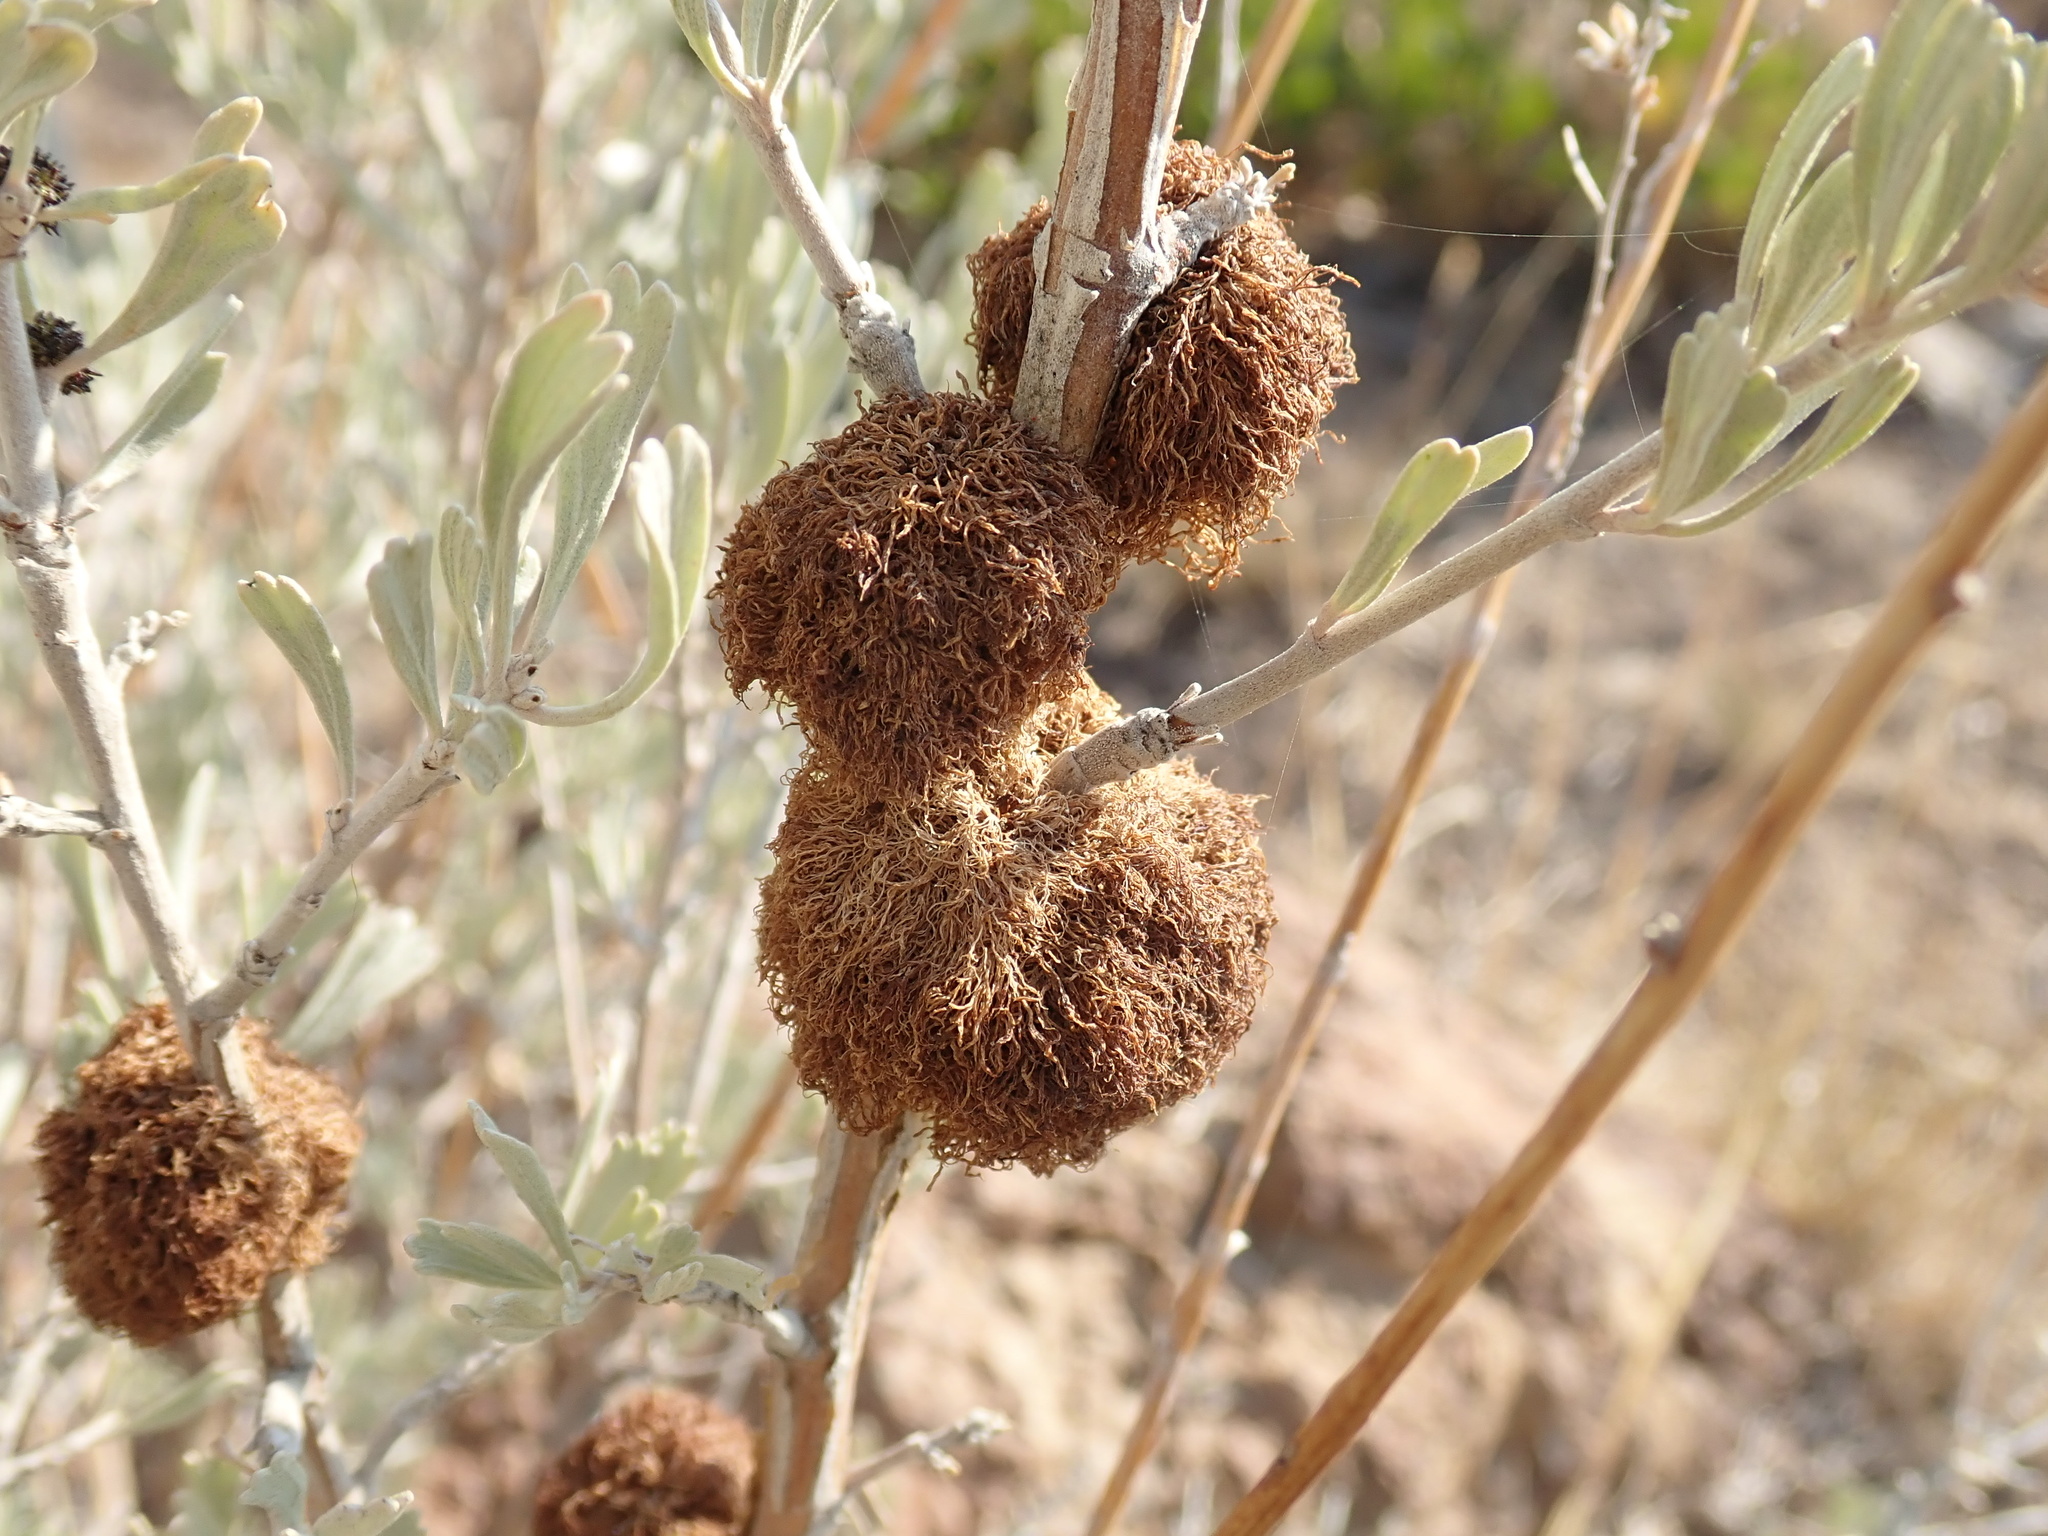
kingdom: Animalia
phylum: Arthropoda
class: Insecta
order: Diptera
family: Cecidomyiidae
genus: Rhopalomyia
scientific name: Rhopalomyia medusa
